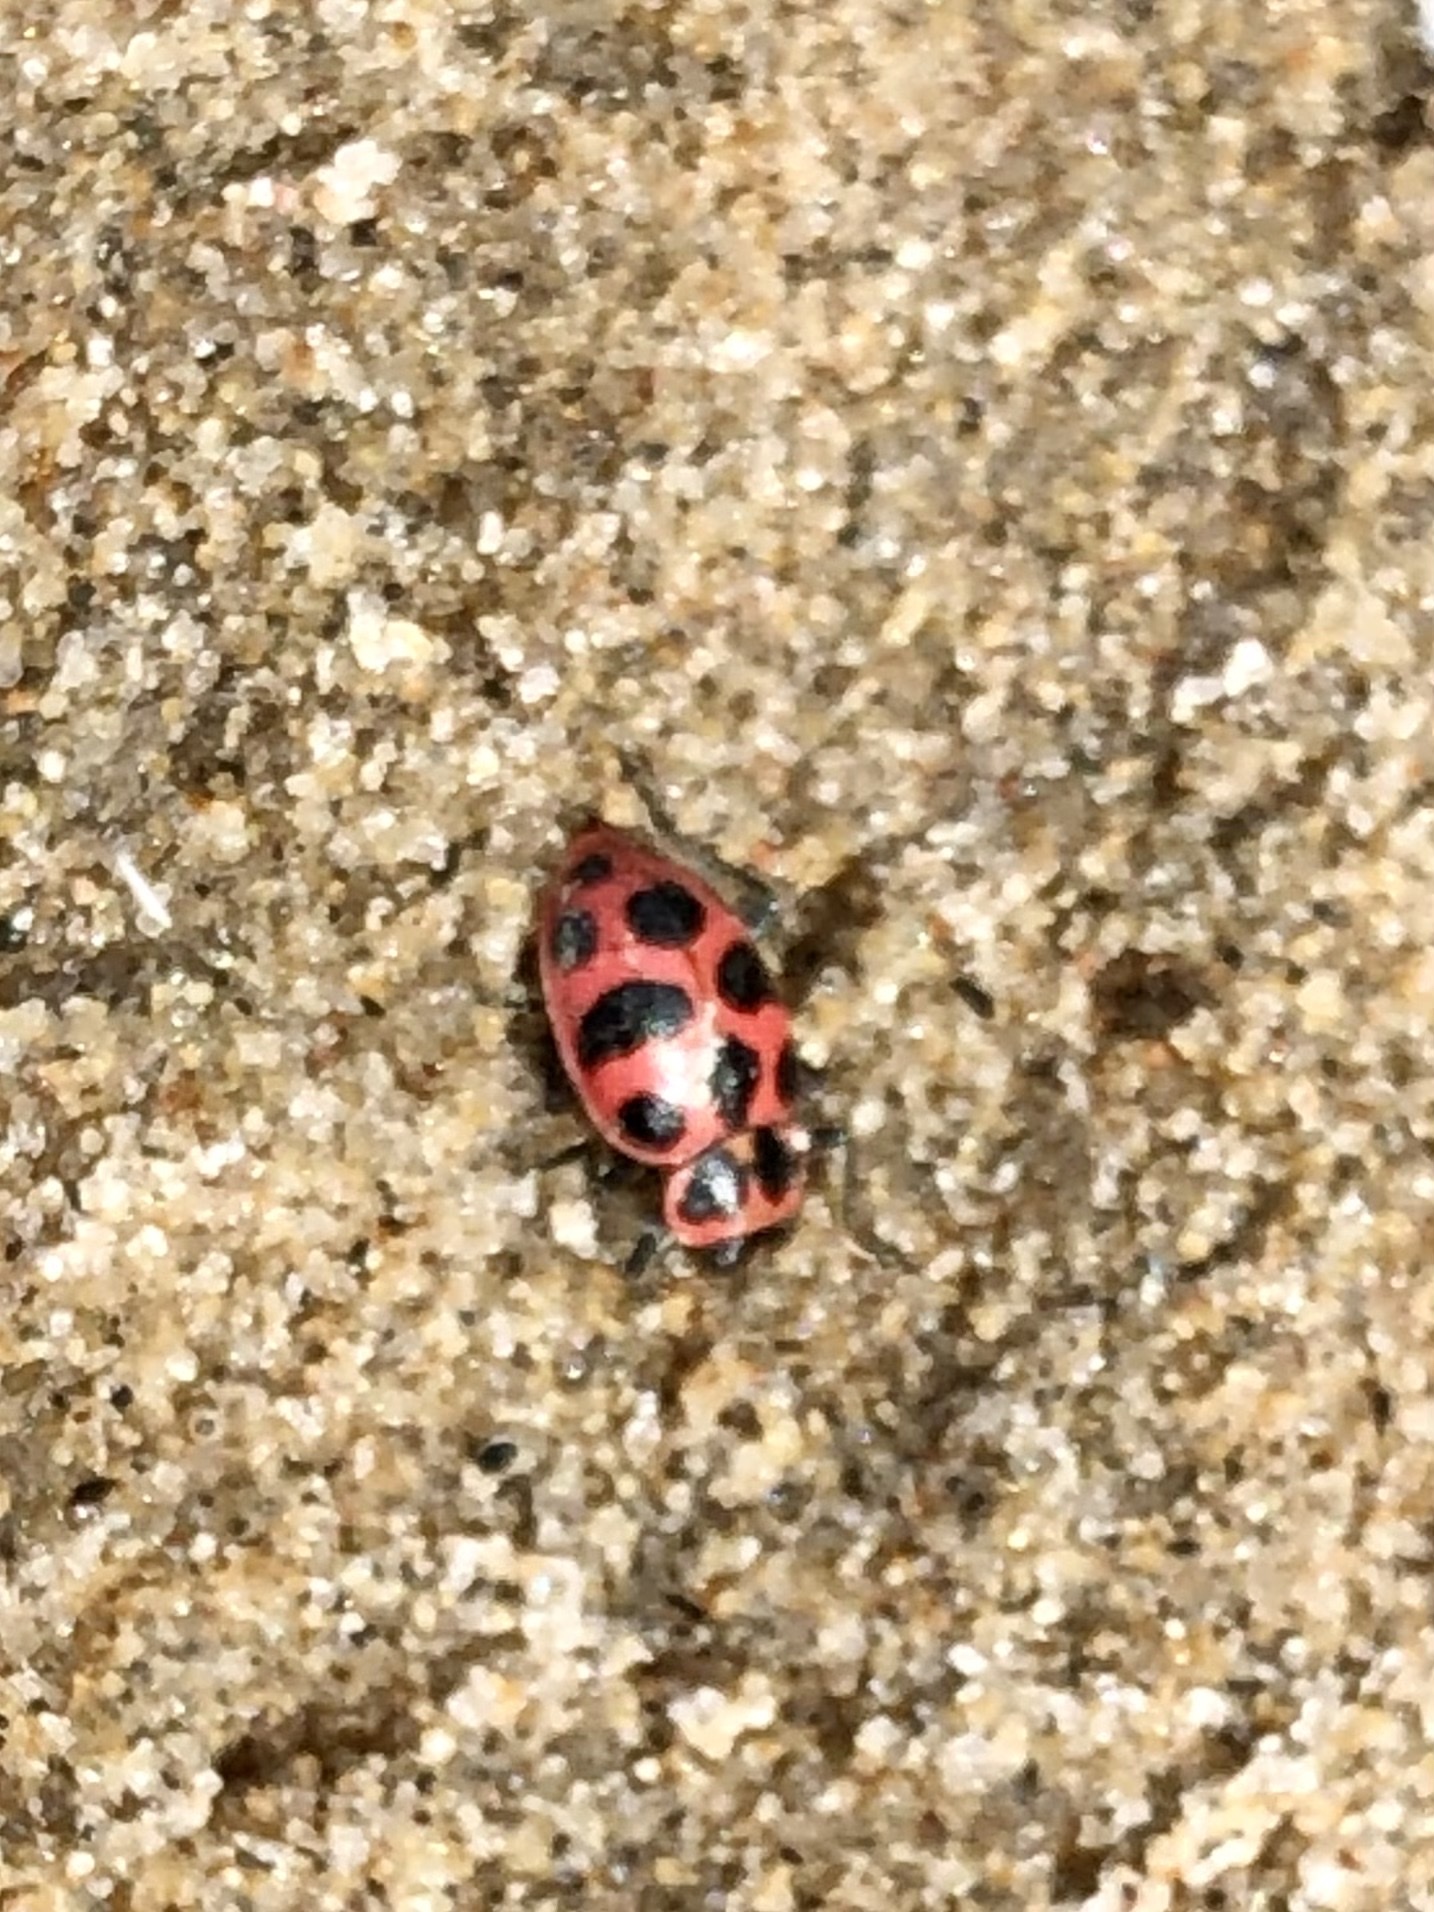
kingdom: Animalia
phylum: Arthropoda
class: Insecta
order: Coleoptera
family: Coccinellidae
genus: Coleomegilla
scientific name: Coleomegilla maculata
